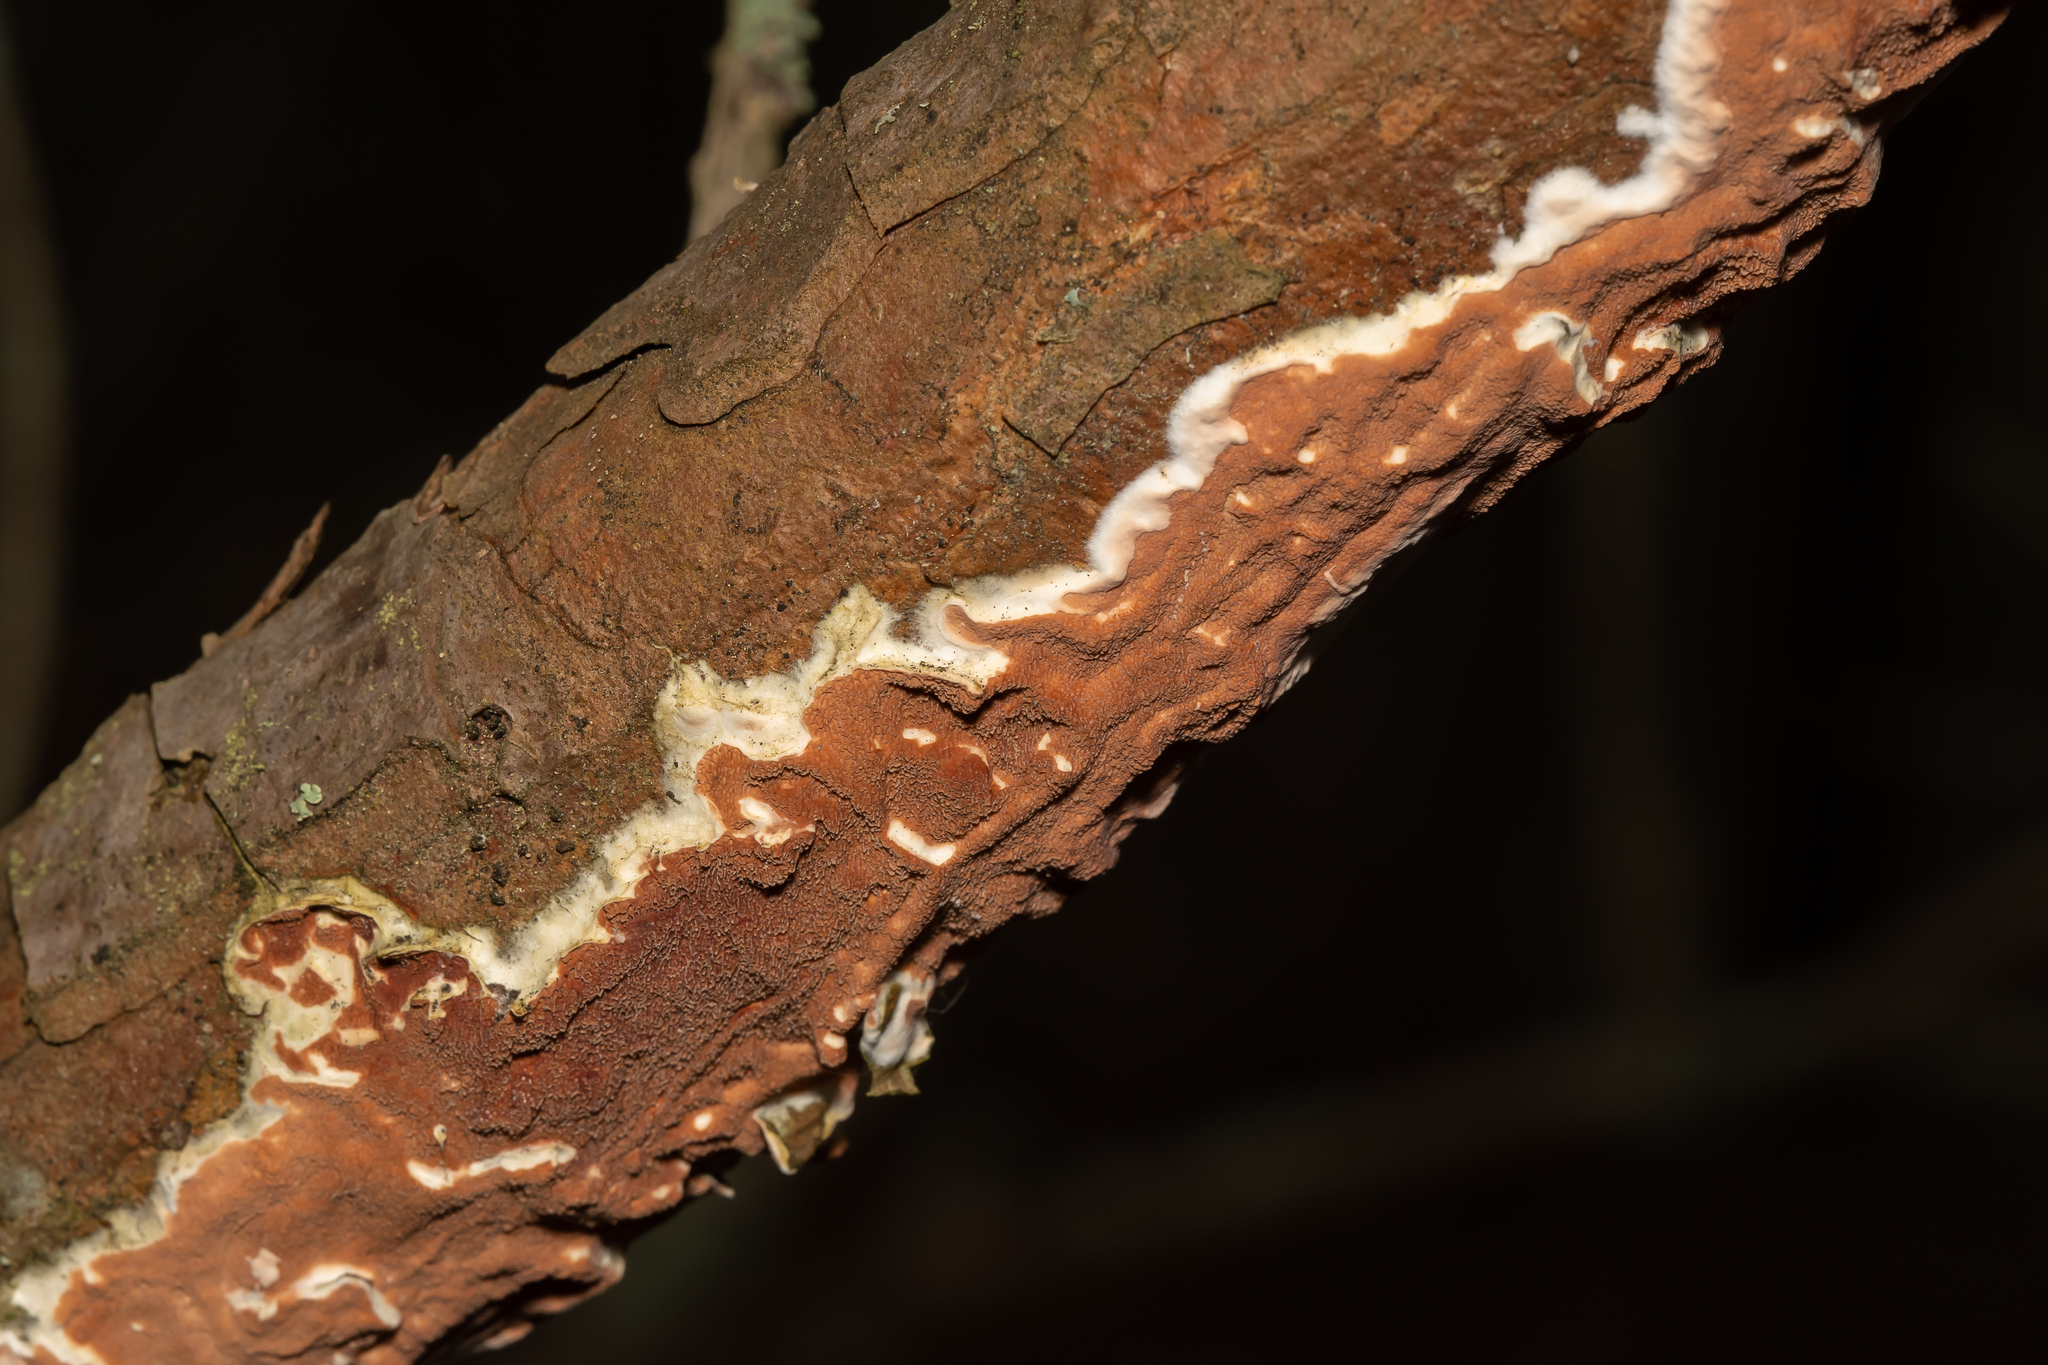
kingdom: Fungi
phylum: Basidiomycota
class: Agaricomycetes
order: Polyporales
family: Irpicaceae
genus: Meruliopsis
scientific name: Meruliopsis taxicola
